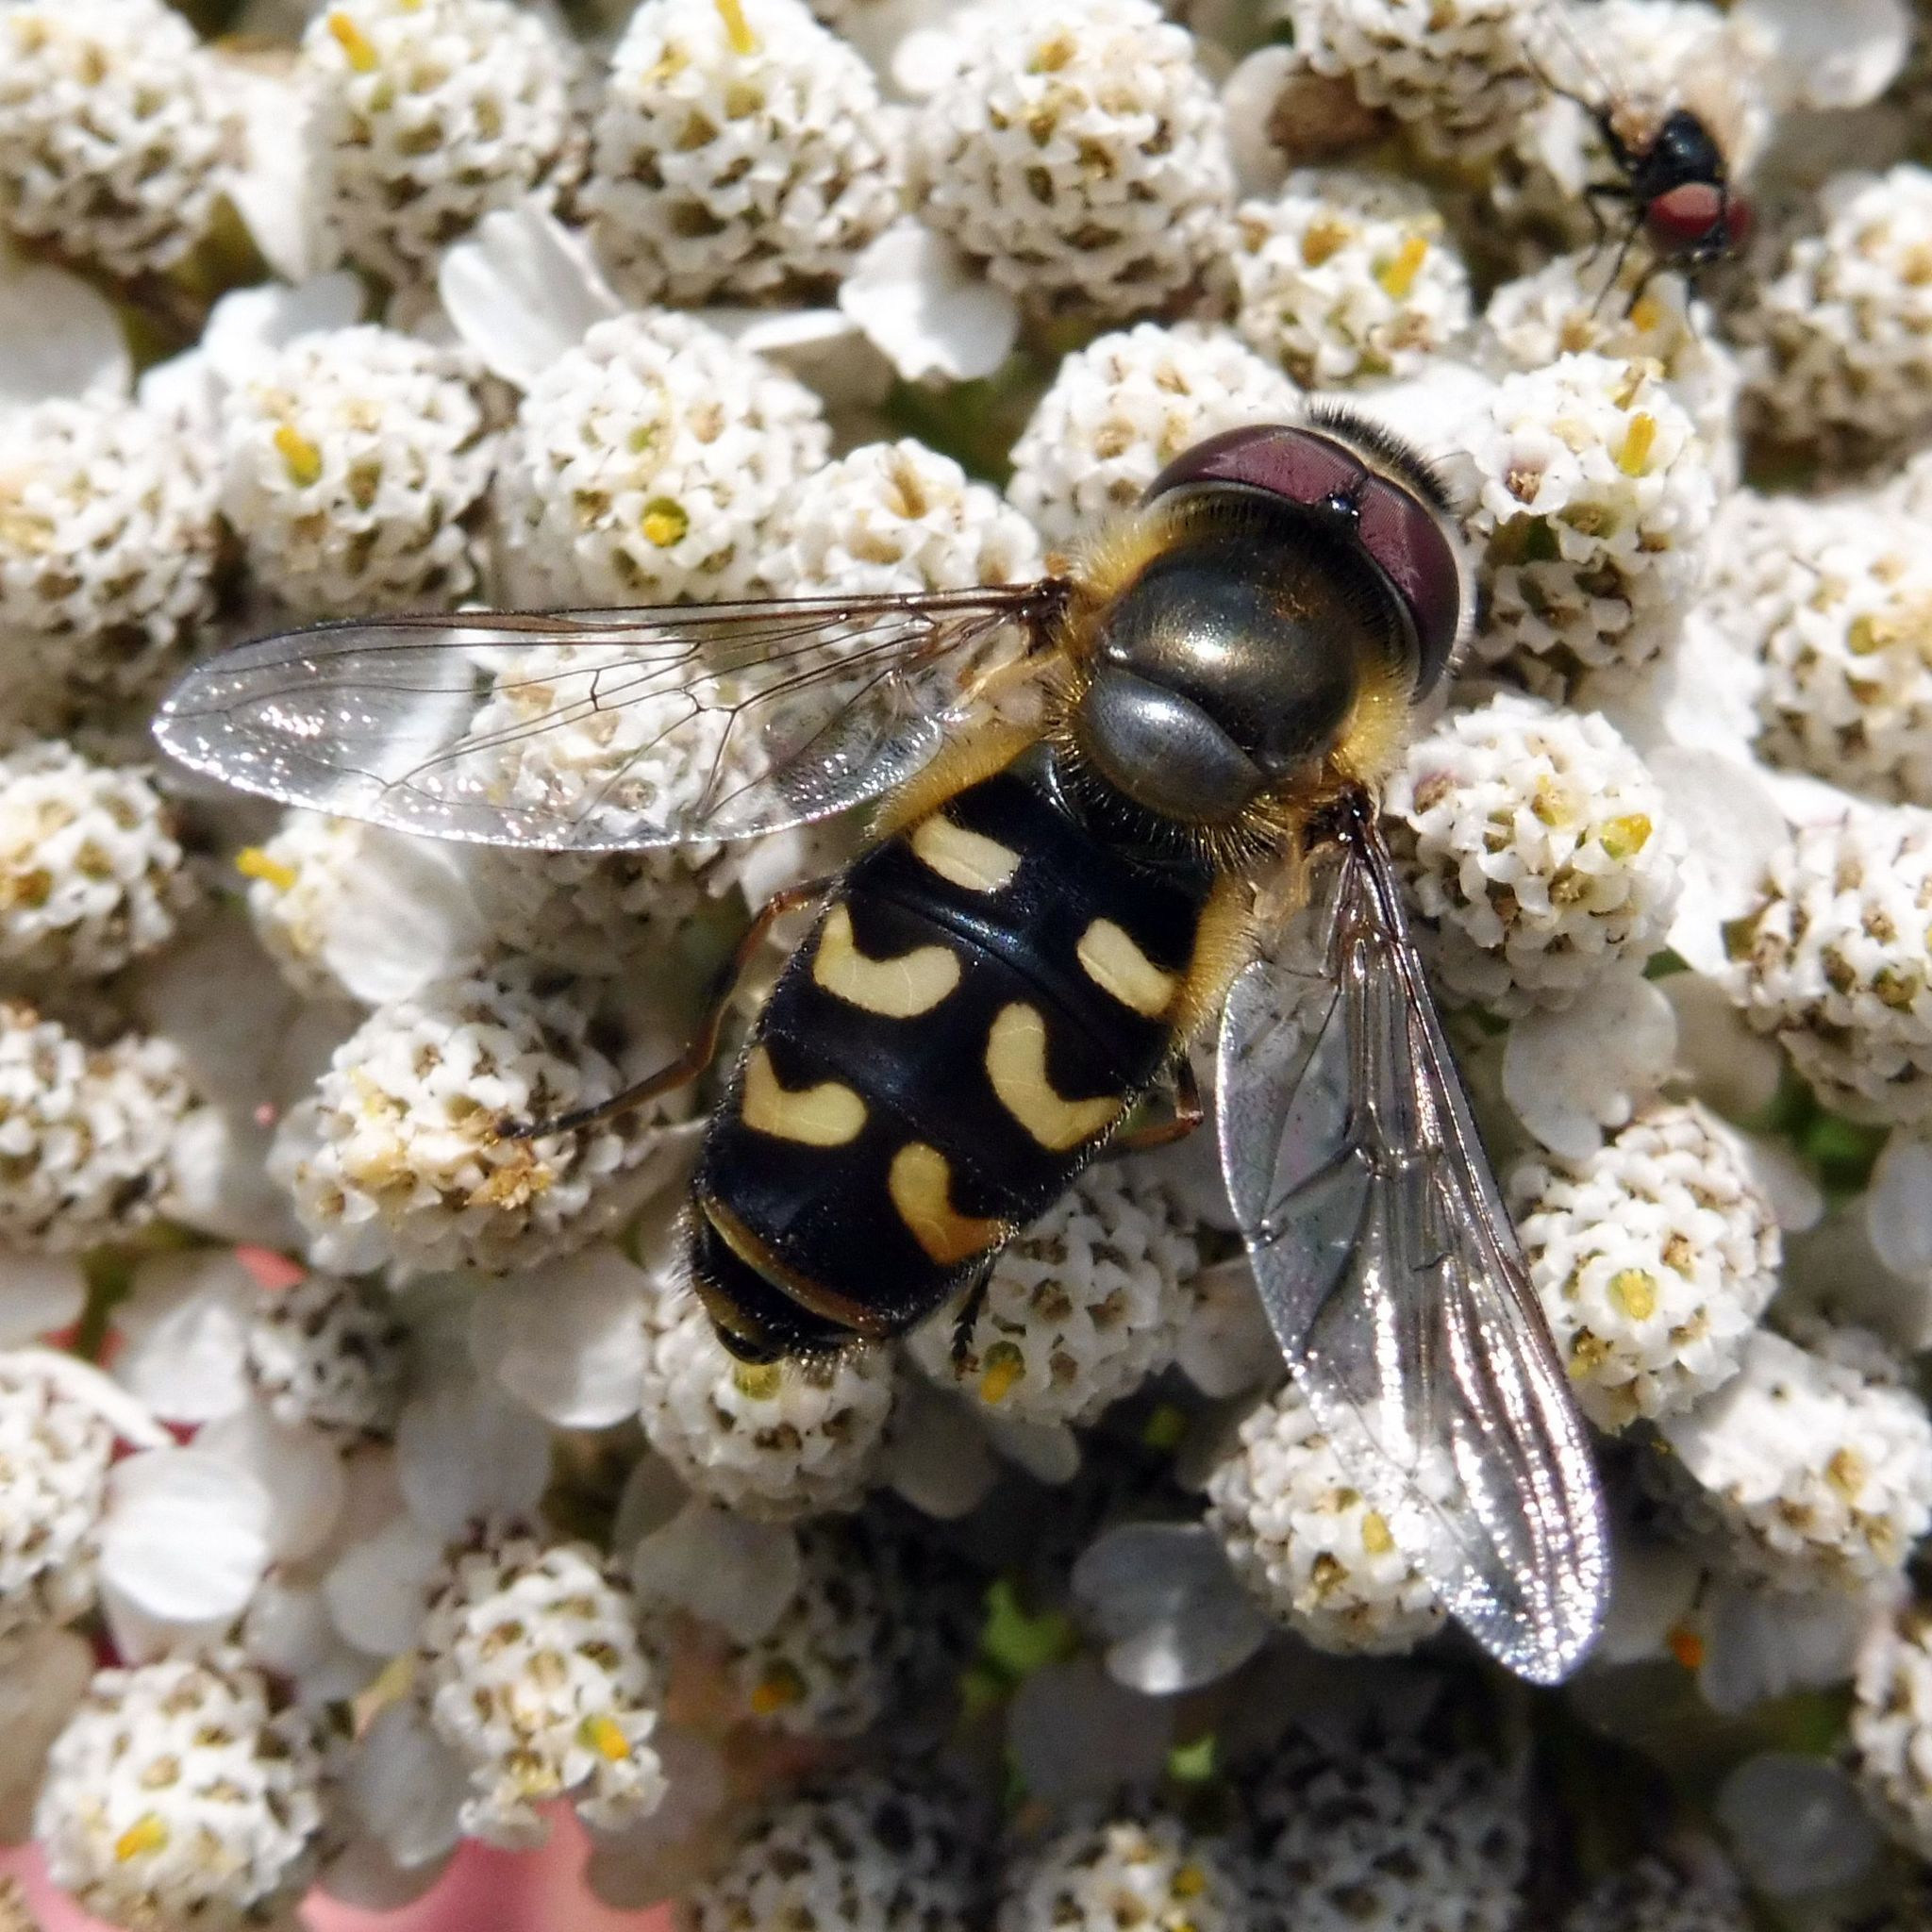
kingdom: Animalia
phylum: Arthropoda
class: Insecta
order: Diptera
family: Syrphidae
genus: Scaeva
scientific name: Scaeva selenitica
